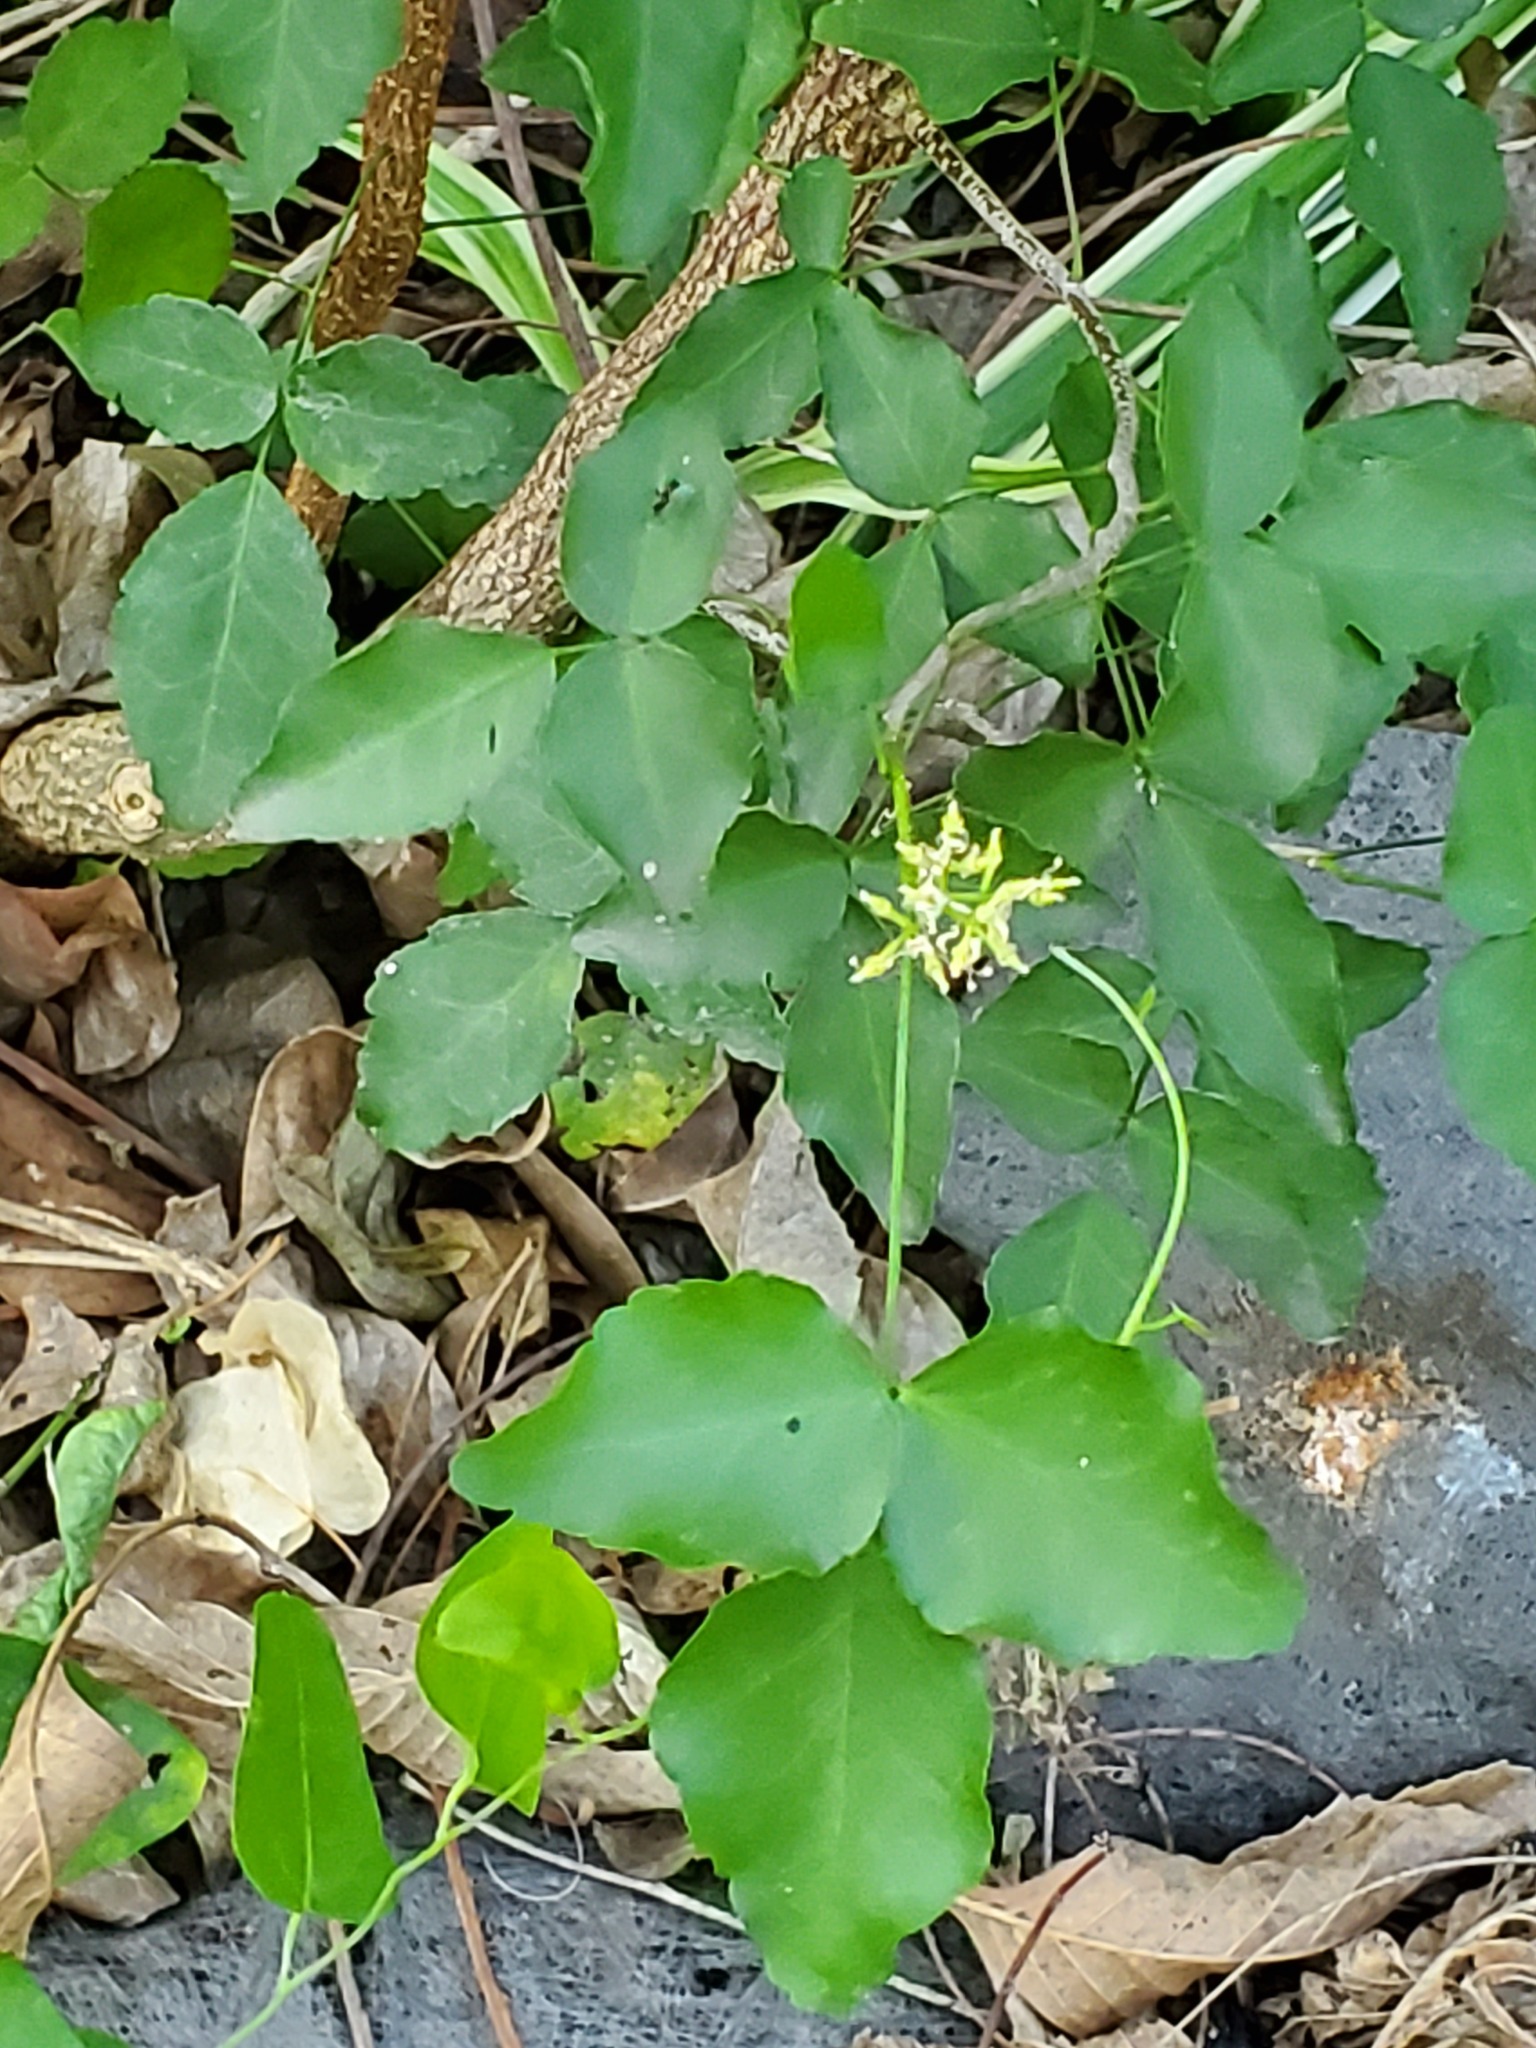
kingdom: Plantae
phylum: Tracheophyta
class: Magnoliopsida
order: Sapindales
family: Rutaceae
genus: Amyris
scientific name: Amyris texana
